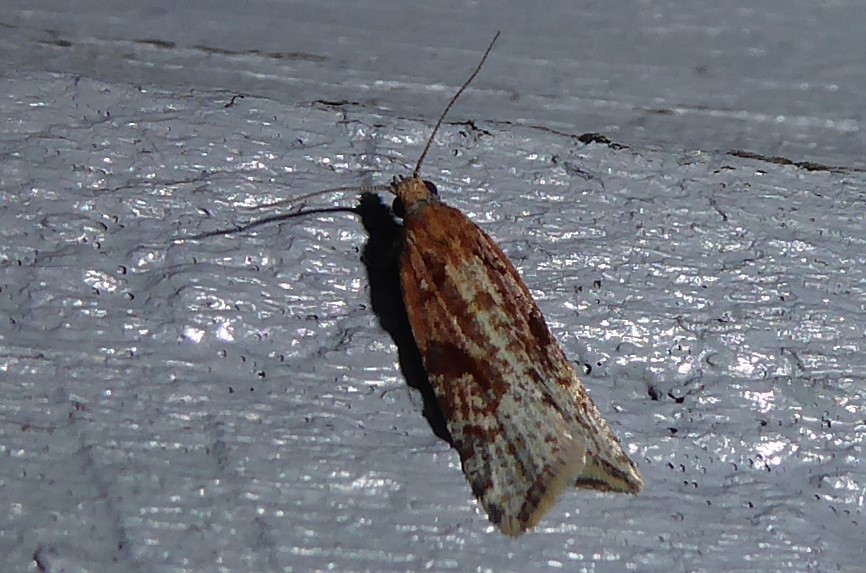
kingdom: Animalia
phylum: Arthropoda
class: Insecta
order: Lepidoptera
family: Tortricidae
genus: Capua
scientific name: Capua semiferana
